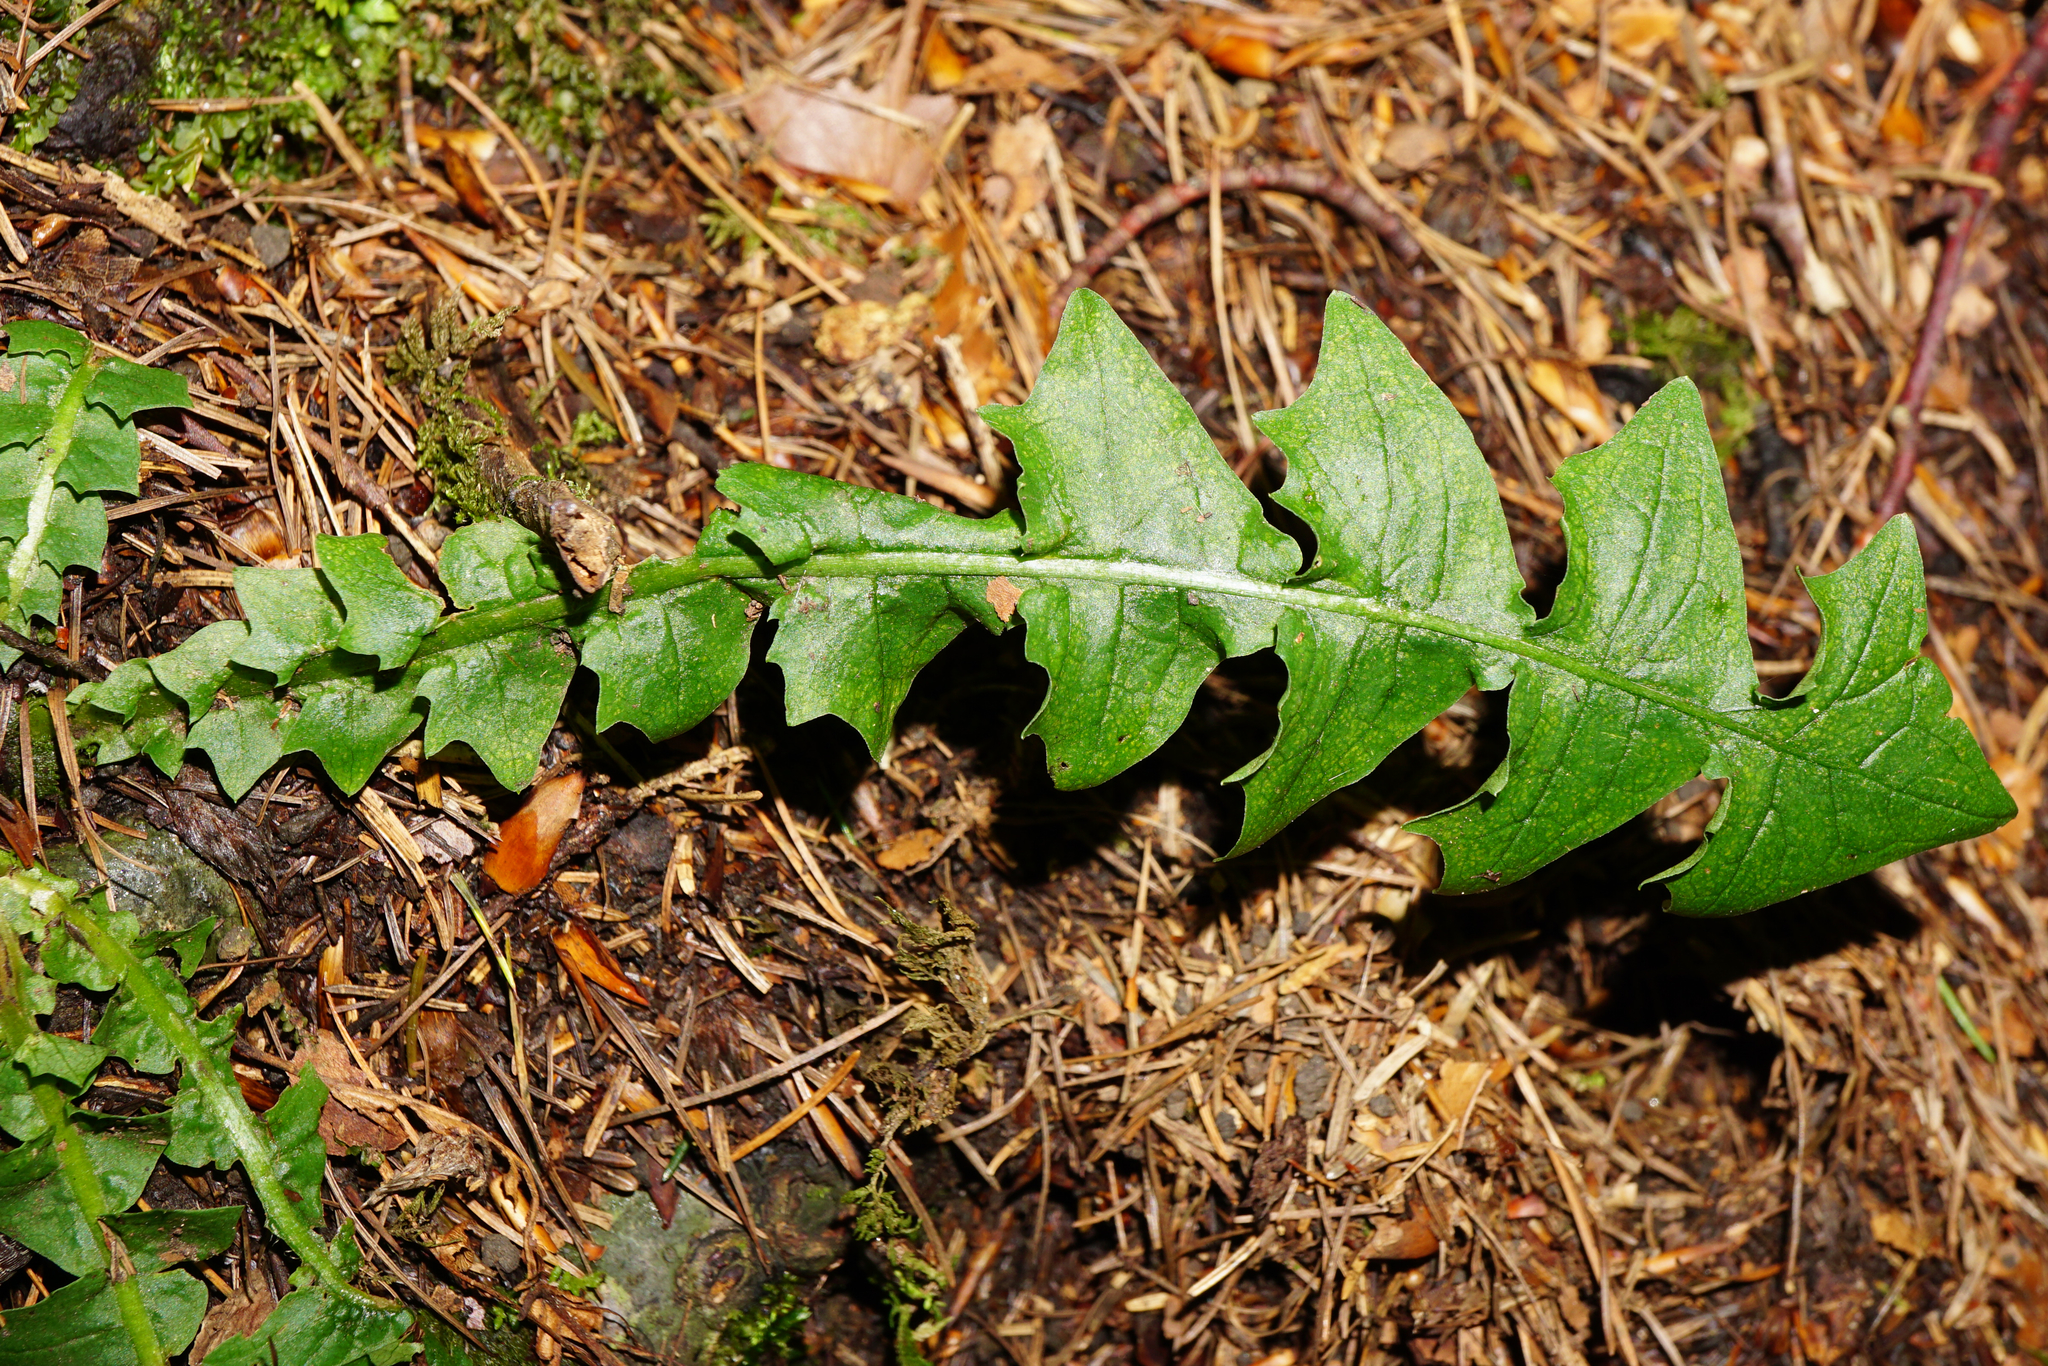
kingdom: Plantae
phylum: Tracheophyta
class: Magnoliopsida
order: Asterales
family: Asteraceae
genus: Aposeris
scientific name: Aposeris foetida
